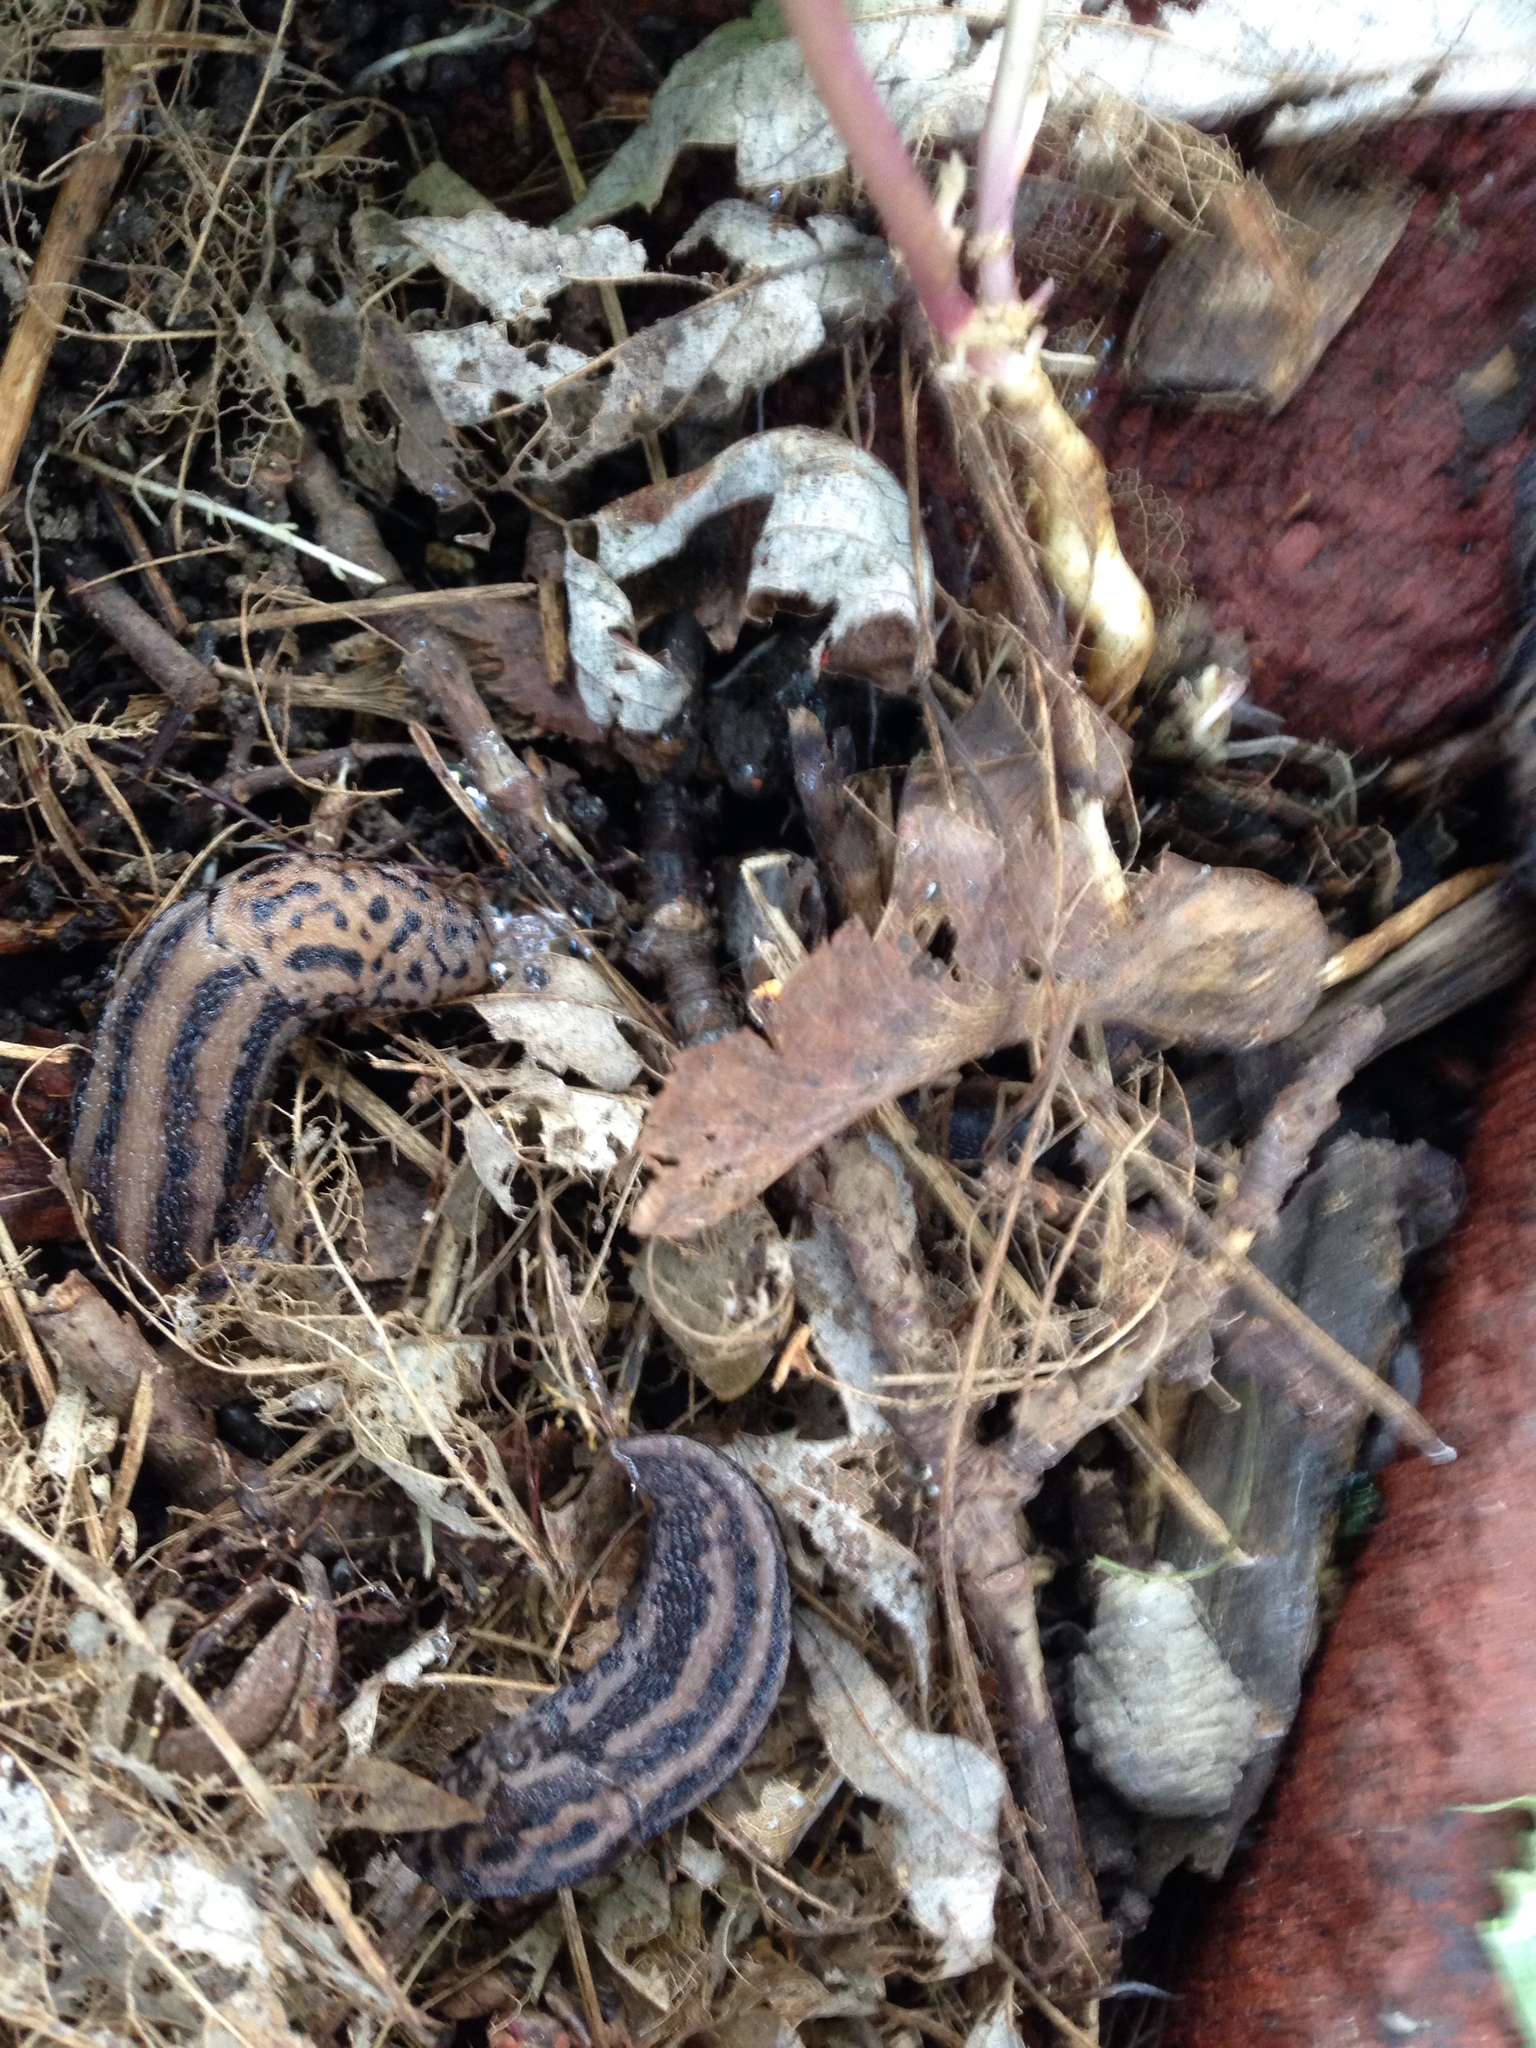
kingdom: Animalia
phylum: Mollusca
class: Gastropoda
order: Stylommatophora
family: Limacidae
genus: Limax
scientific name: Limax maximus
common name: Great grey slug
